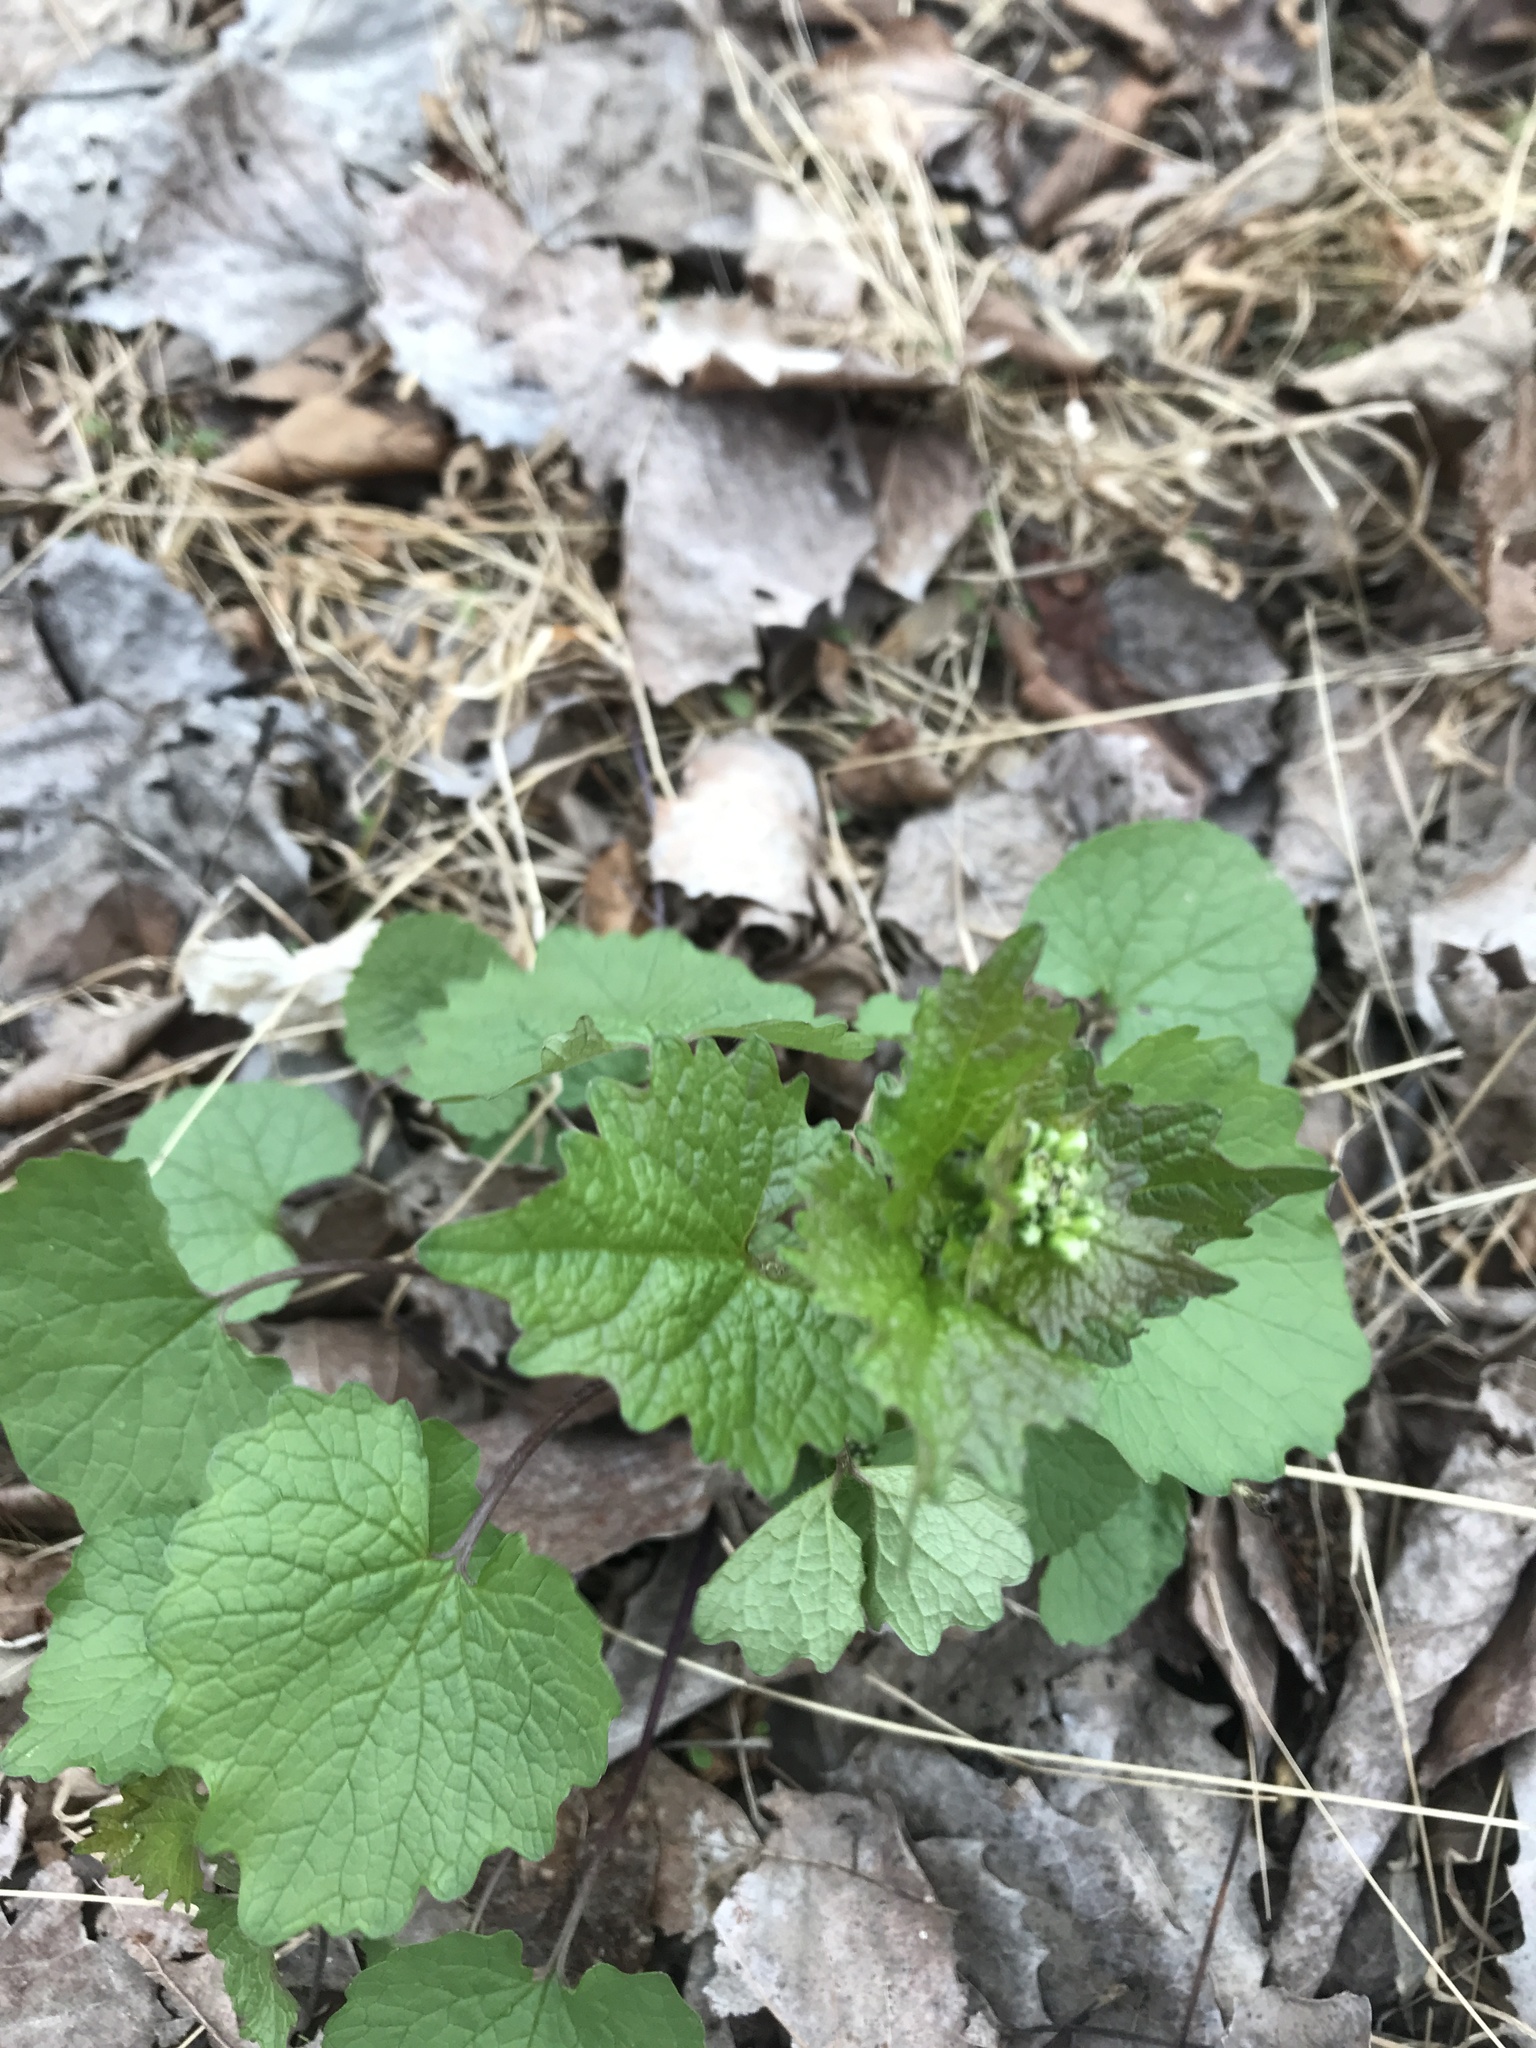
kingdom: Plantae
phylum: Tracheophyta
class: Magnoliopsida
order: Brassicales
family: Brassicaceae
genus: Alliaria
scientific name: Alliaria petiolata
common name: Garlic mustard
